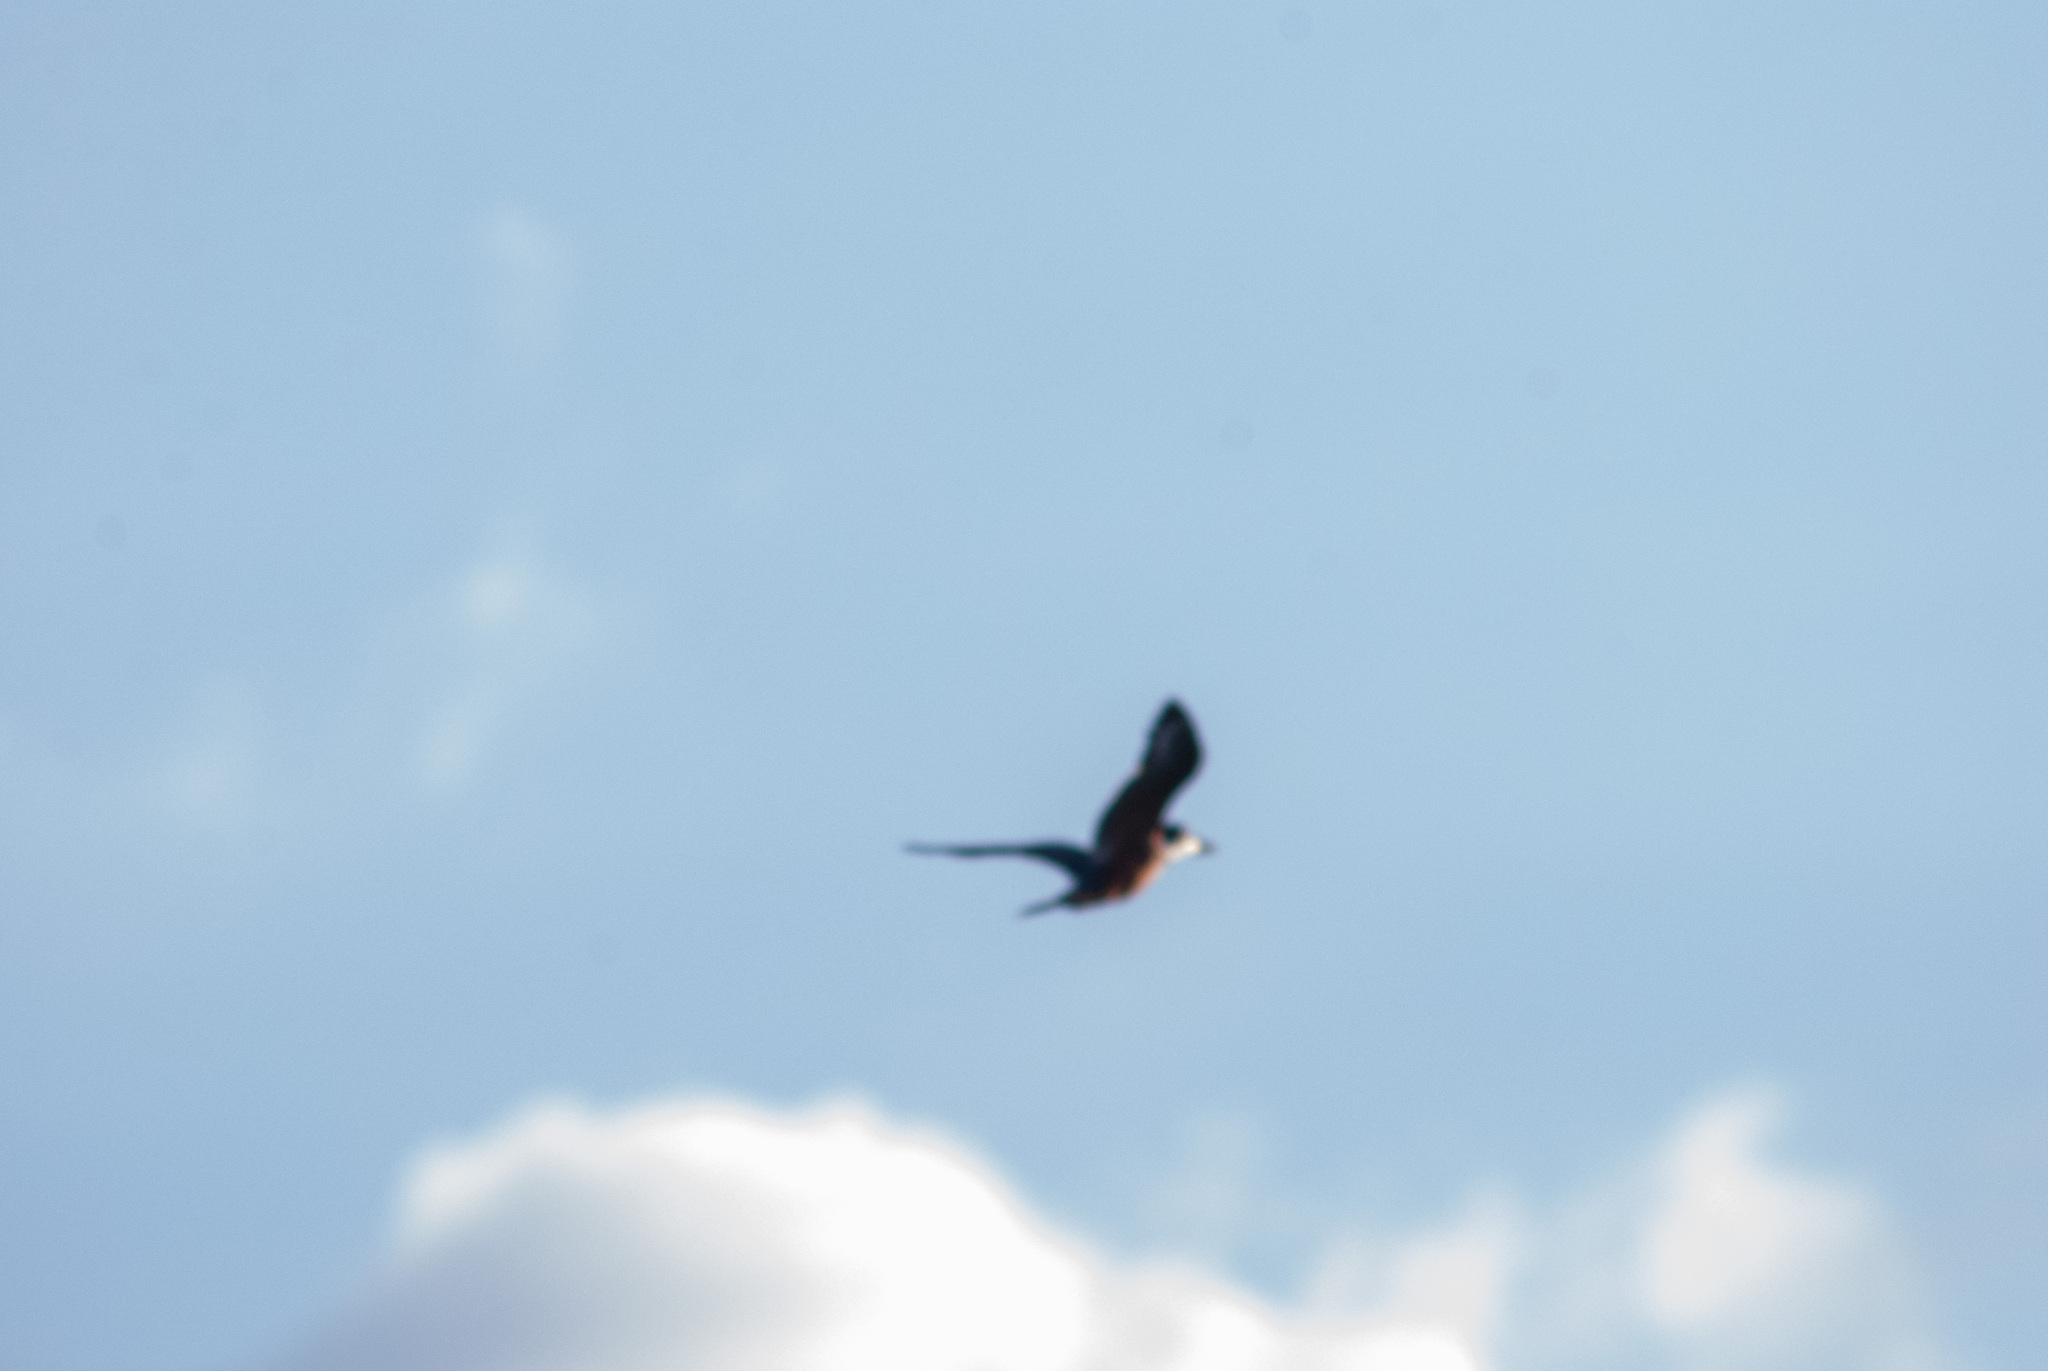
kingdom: Animalia
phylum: Chordata
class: Aves
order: Coraciiformes
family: Alcedinidae
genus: Megaceryle
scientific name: Megaceryle torquata
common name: Ringed kingfisher
